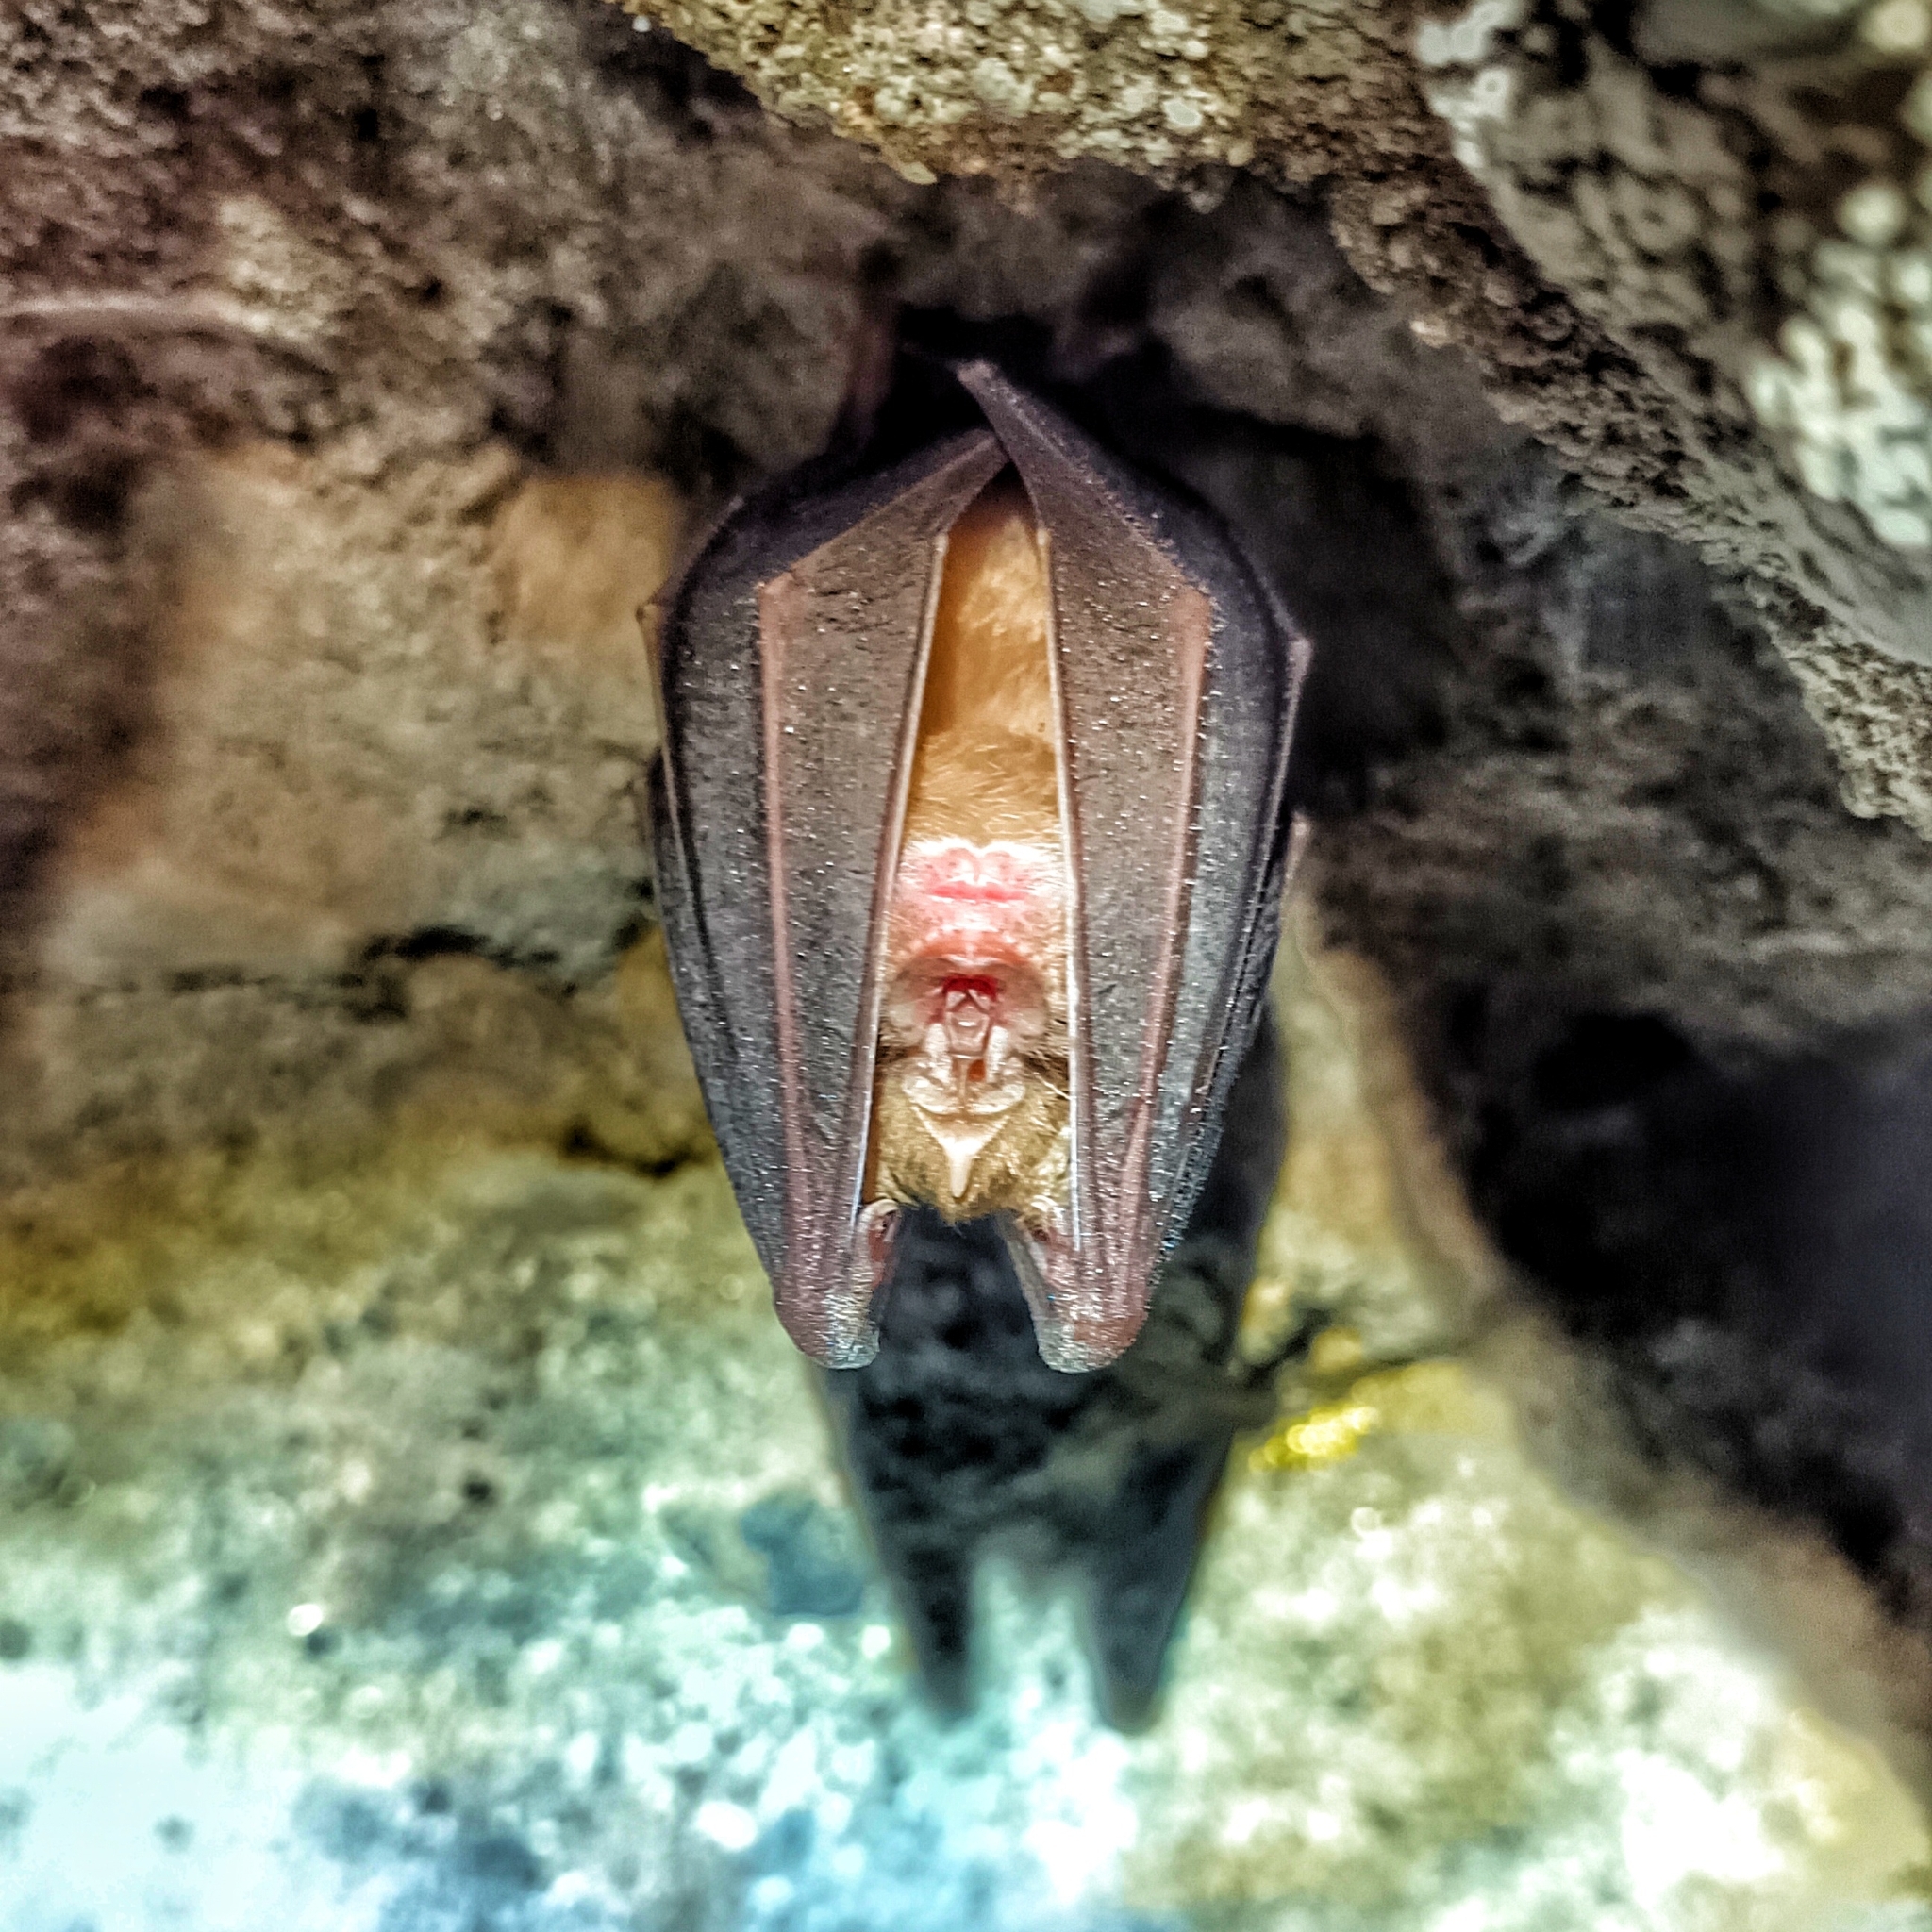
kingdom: Animalia
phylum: Chordata
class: Mammalia
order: Chiroptera
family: Rhinolophidae
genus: Rhinolophus
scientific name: Rhinolophus ferrumequinum
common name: Greater horseshoe bat
